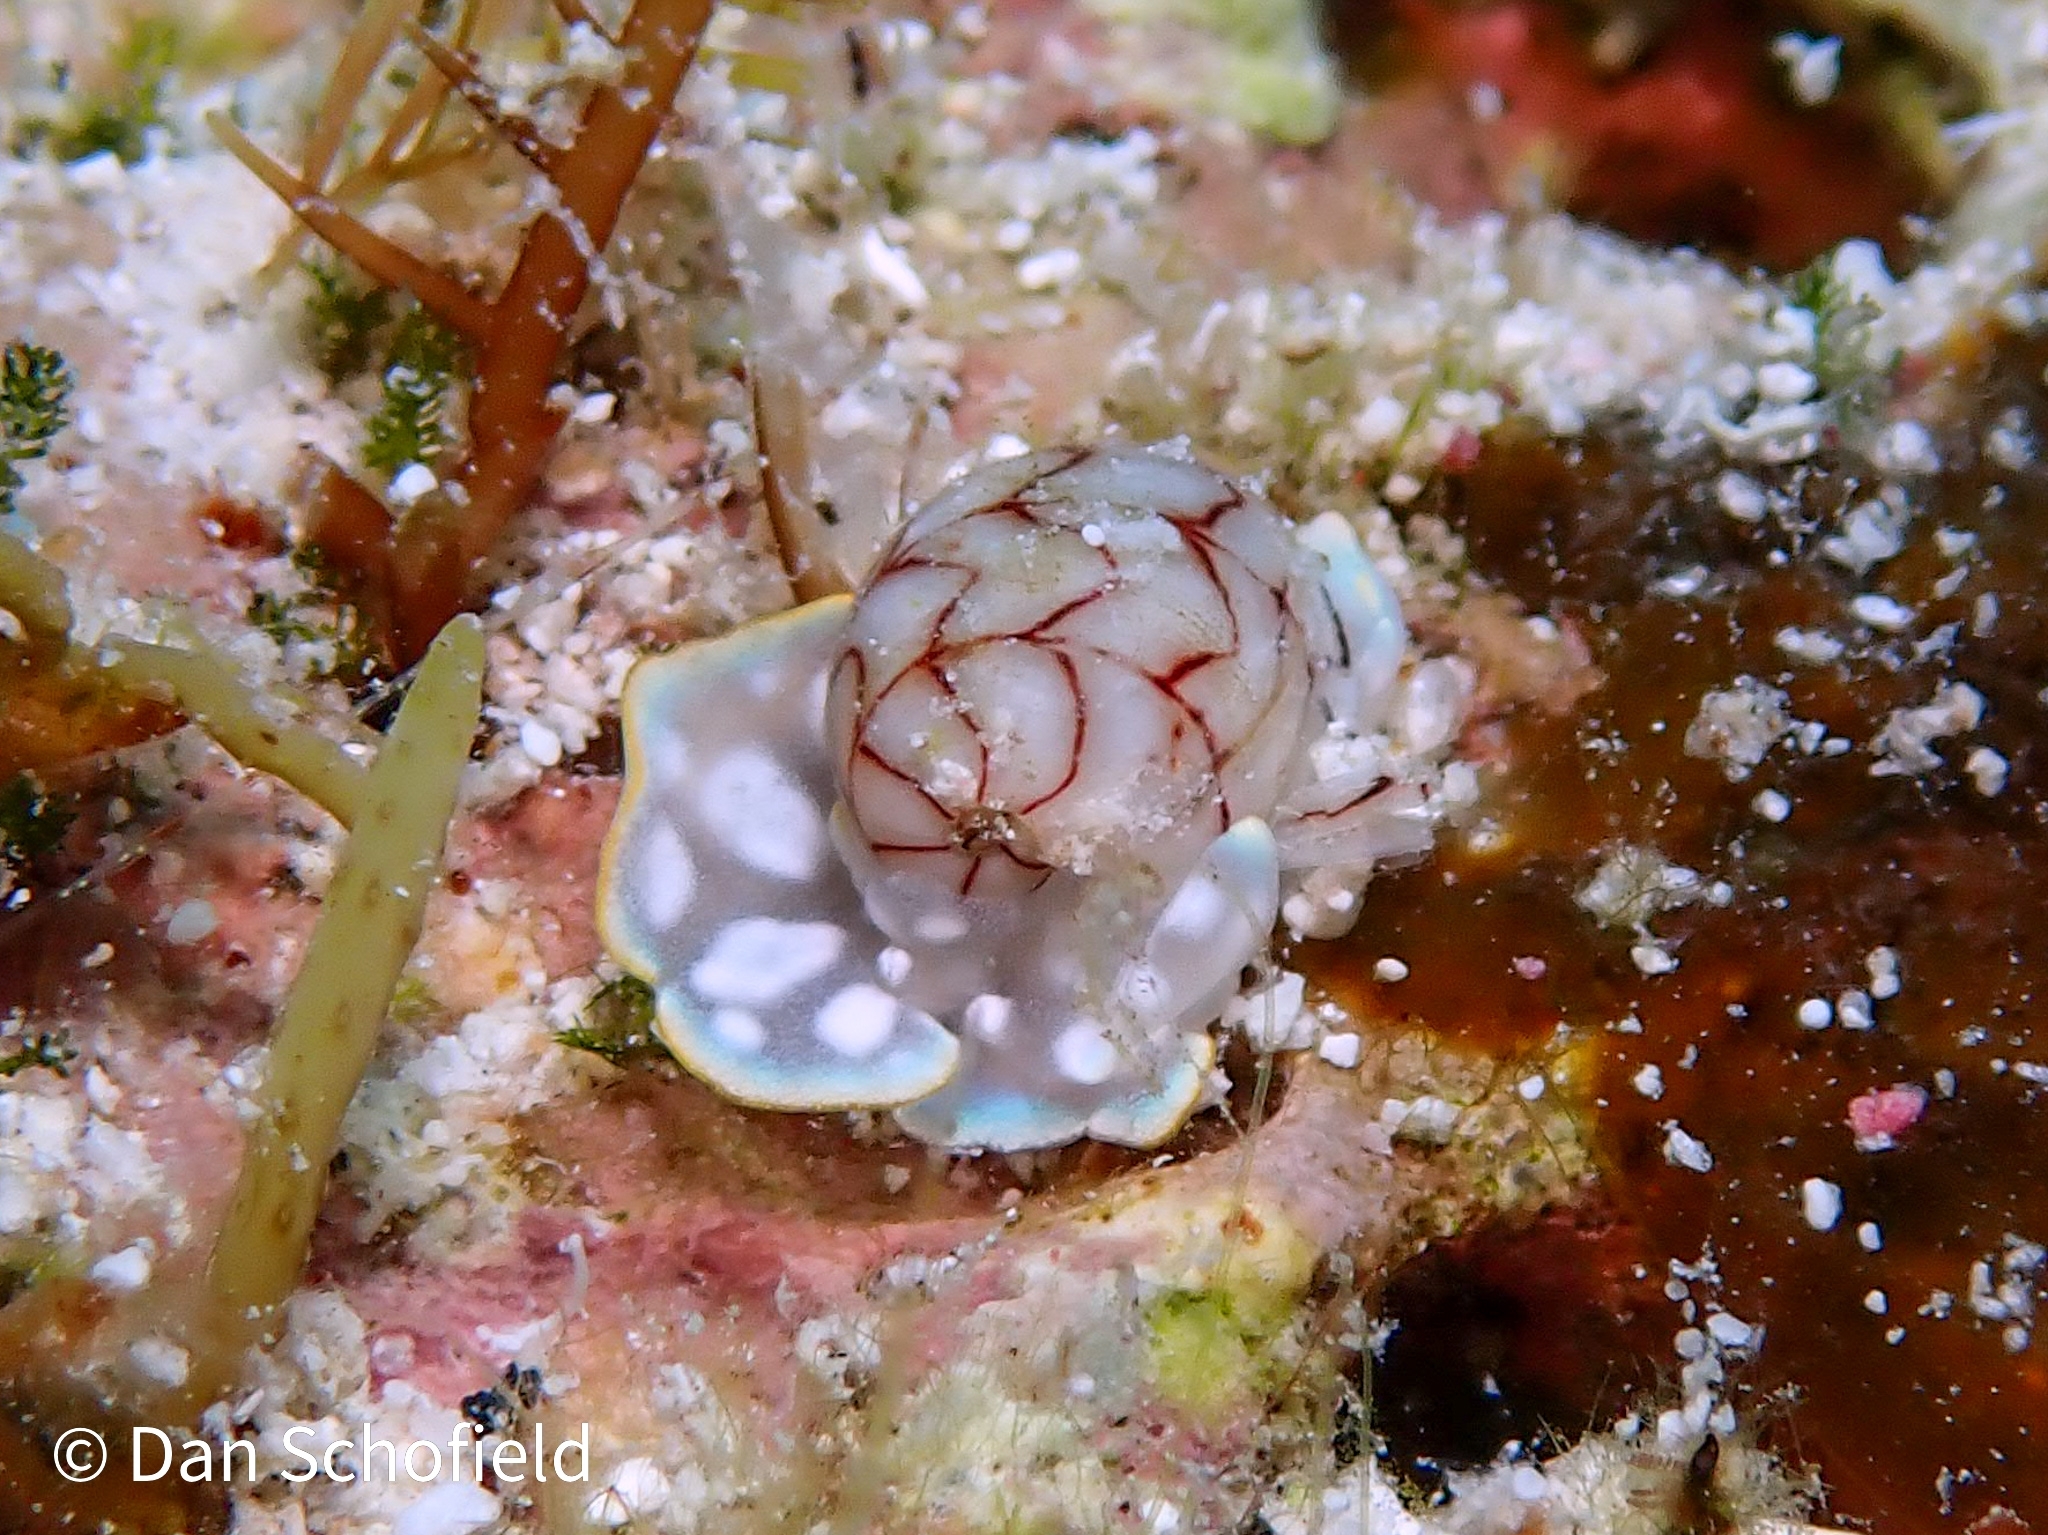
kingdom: Animalia
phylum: Mollusca
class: Gastropoda
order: Cephalaspidea
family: Aplustridae
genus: Micromelo
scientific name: Micromelo undatus
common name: Miniature melo
